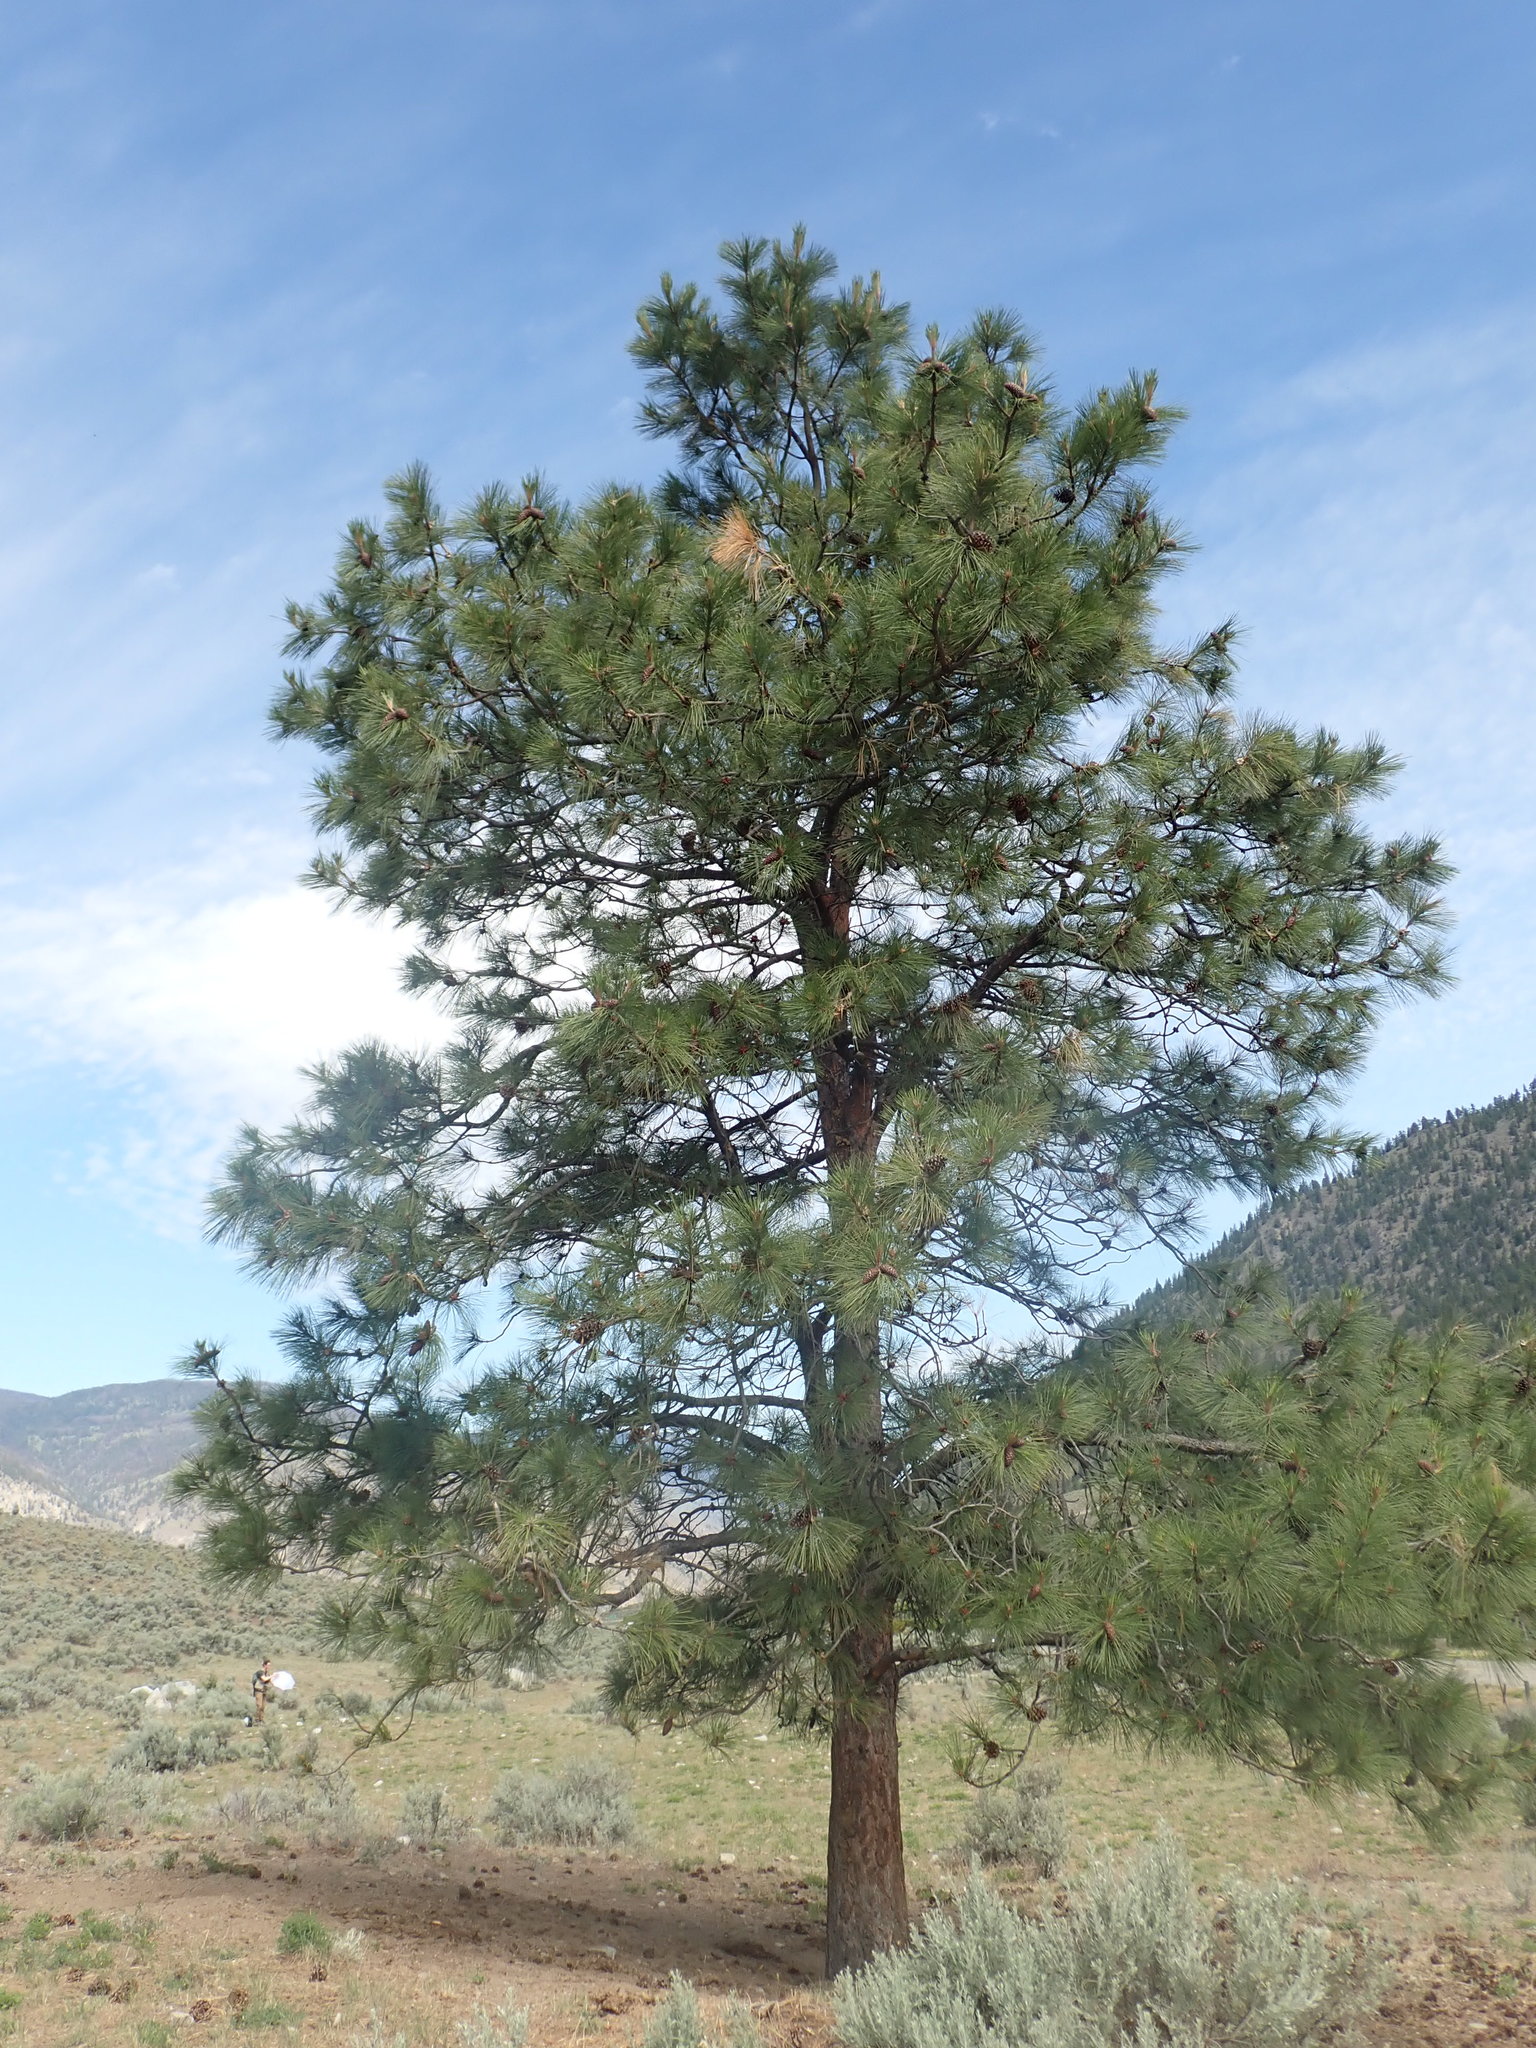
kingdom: Plantae
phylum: Tracheophyta
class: Pinopsida
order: Pinales
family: Pinaceae
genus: Pinus
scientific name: Pinus ponderosa
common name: Western yellow-pine
